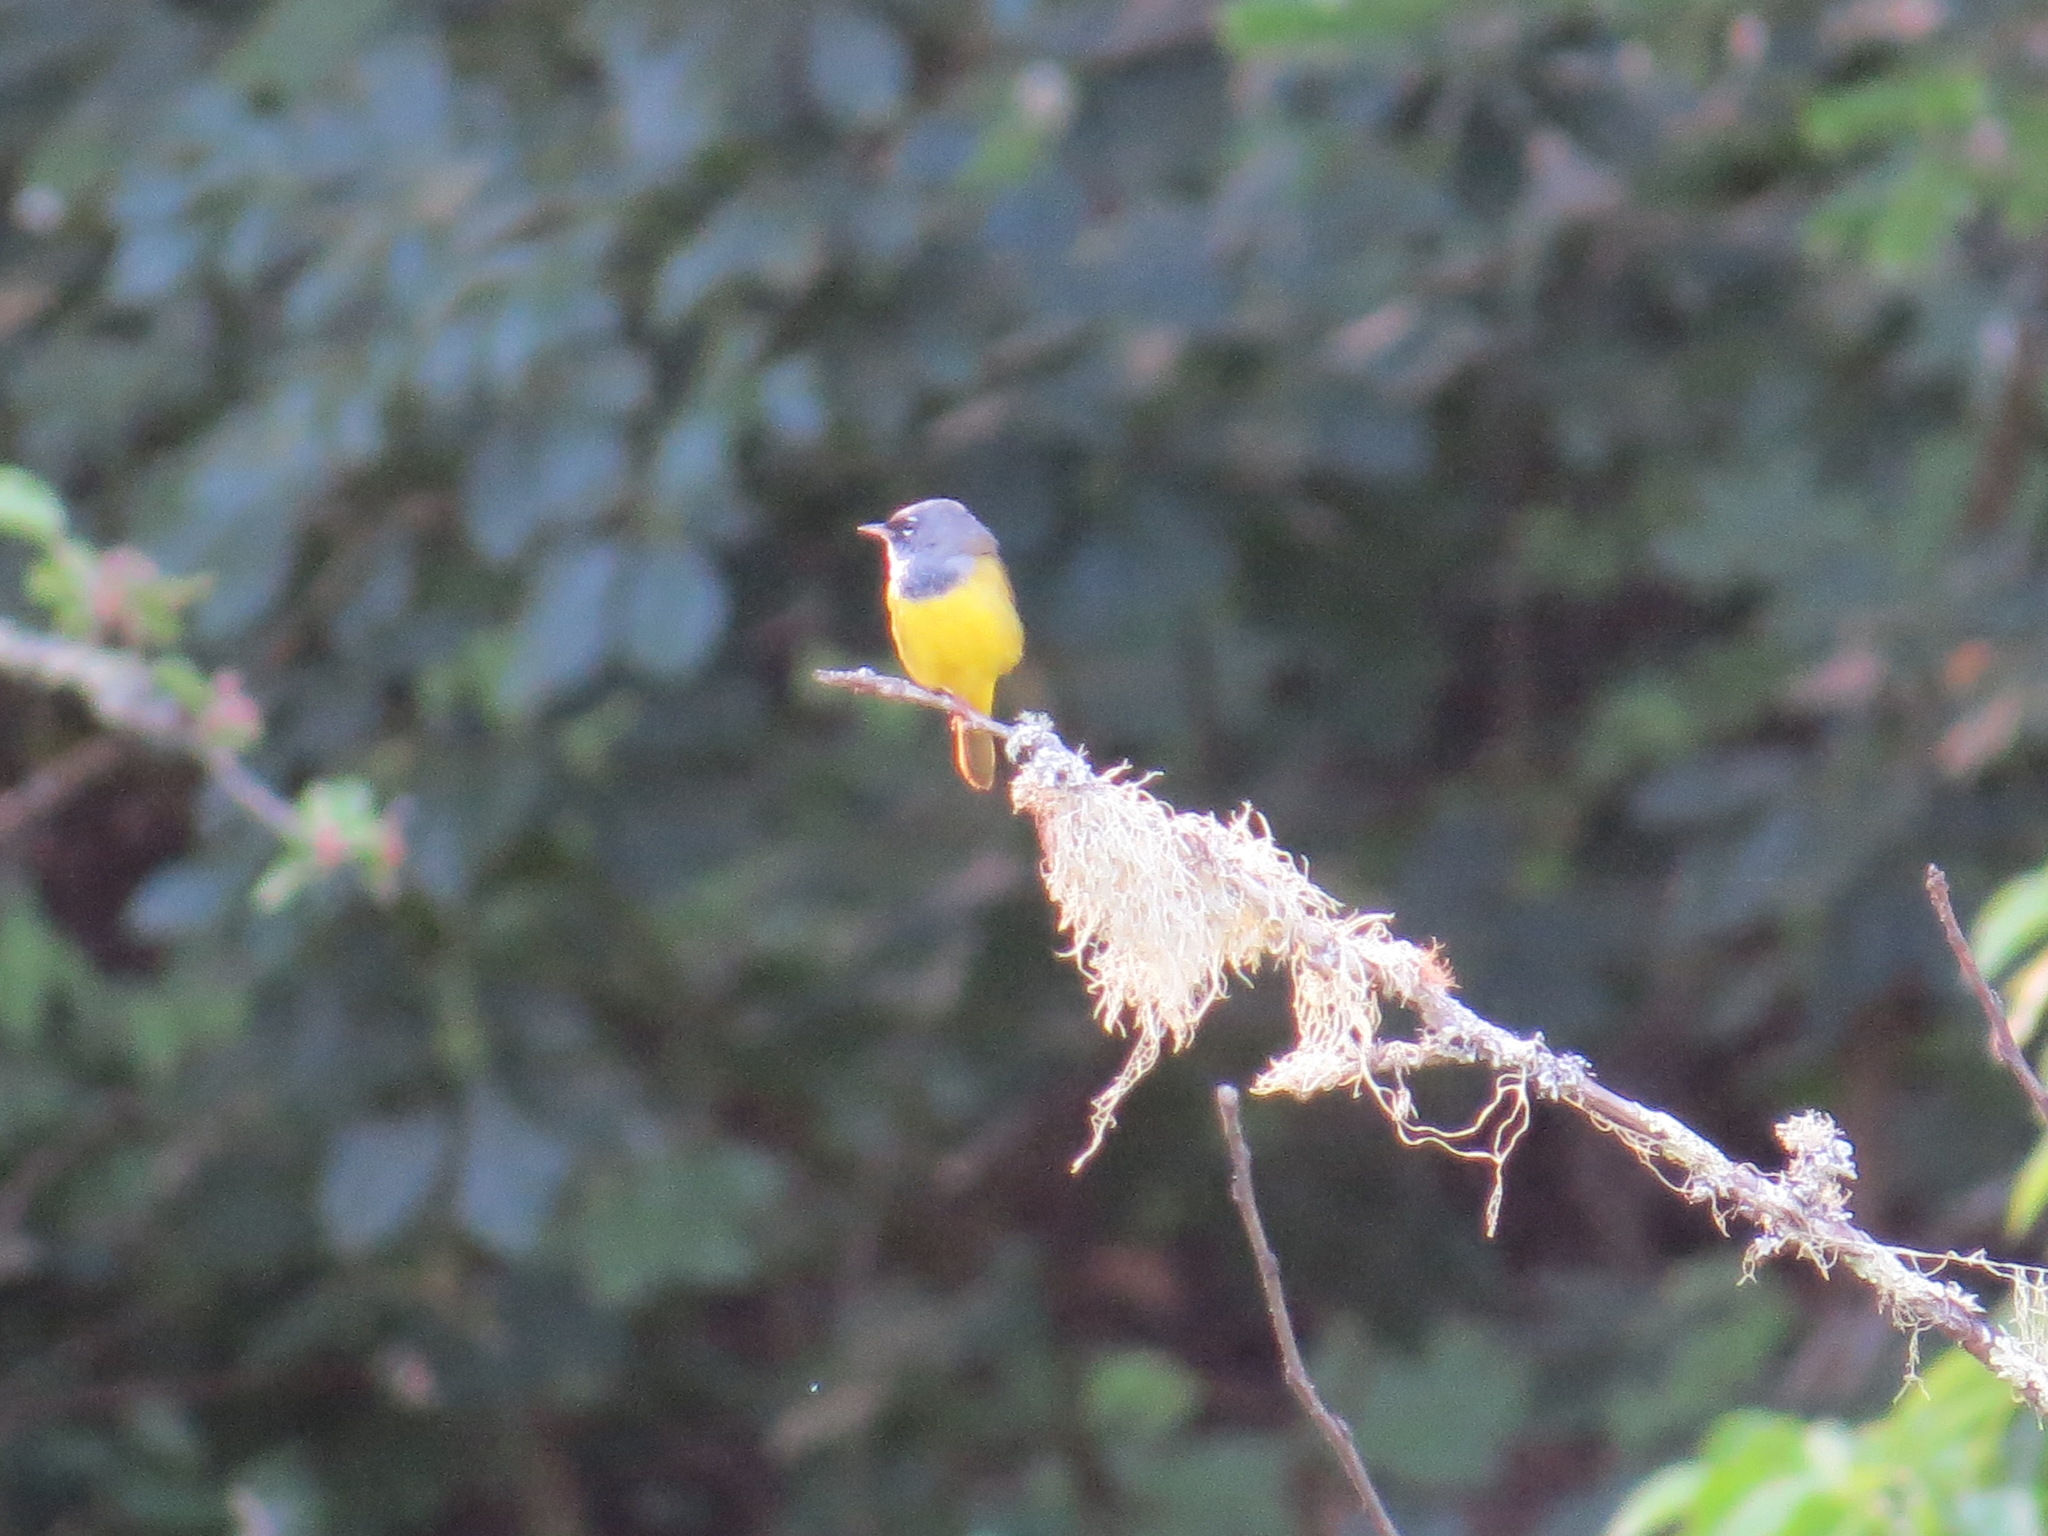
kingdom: Animalia
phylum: Chordata
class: Aves
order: Passeriformes
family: Parulidae
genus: Geothlypis
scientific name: Geothlypis tolmiei
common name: Macgillivray's warbler
